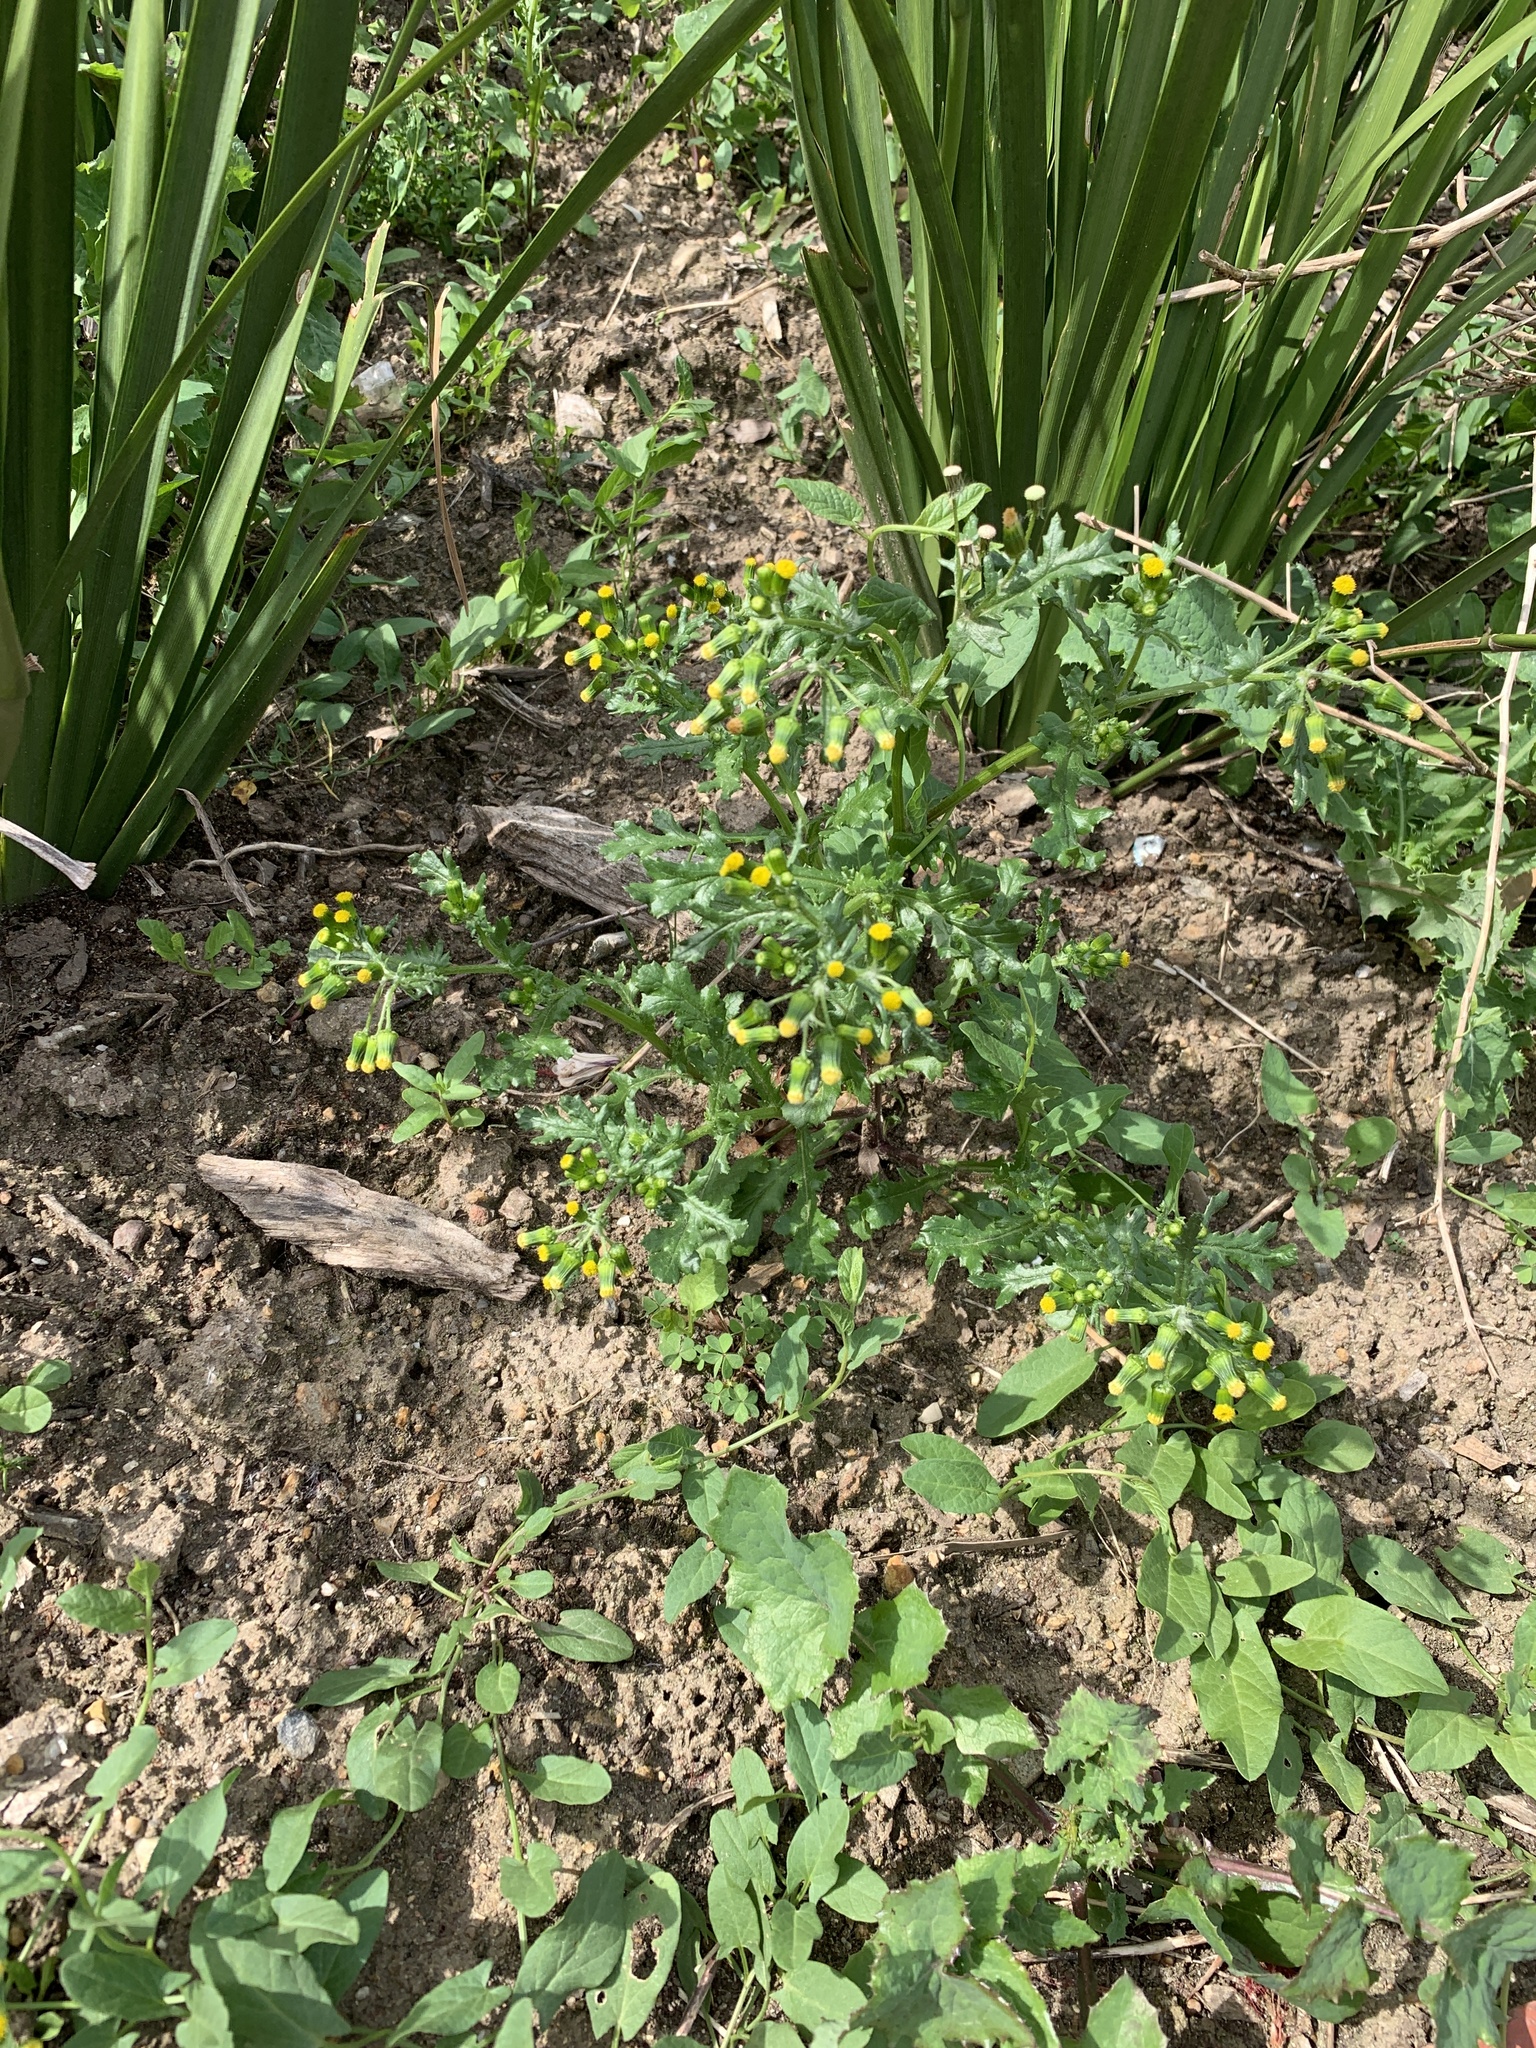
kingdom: Plantae
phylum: Tracheophyta
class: Magnoliopsida
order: Asterales
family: Asteraceae
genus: Senecio
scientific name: Senecio vulgaris
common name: Old-man-in-the-spring
